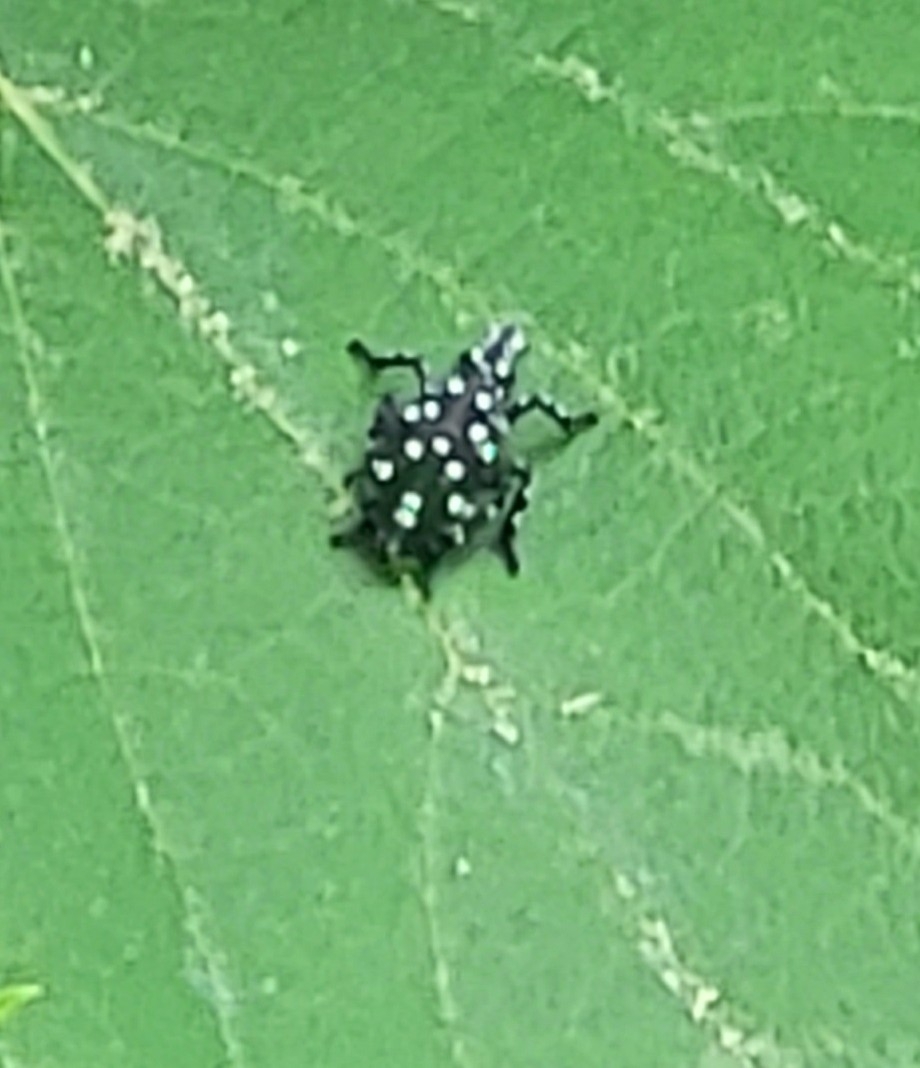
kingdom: Animalia
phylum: Arthropoda
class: Insecta
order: Hemiptera
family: Fulgoridae
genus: Lycorma
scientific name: Lycorma delicatula
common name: Spotted lanternfly
